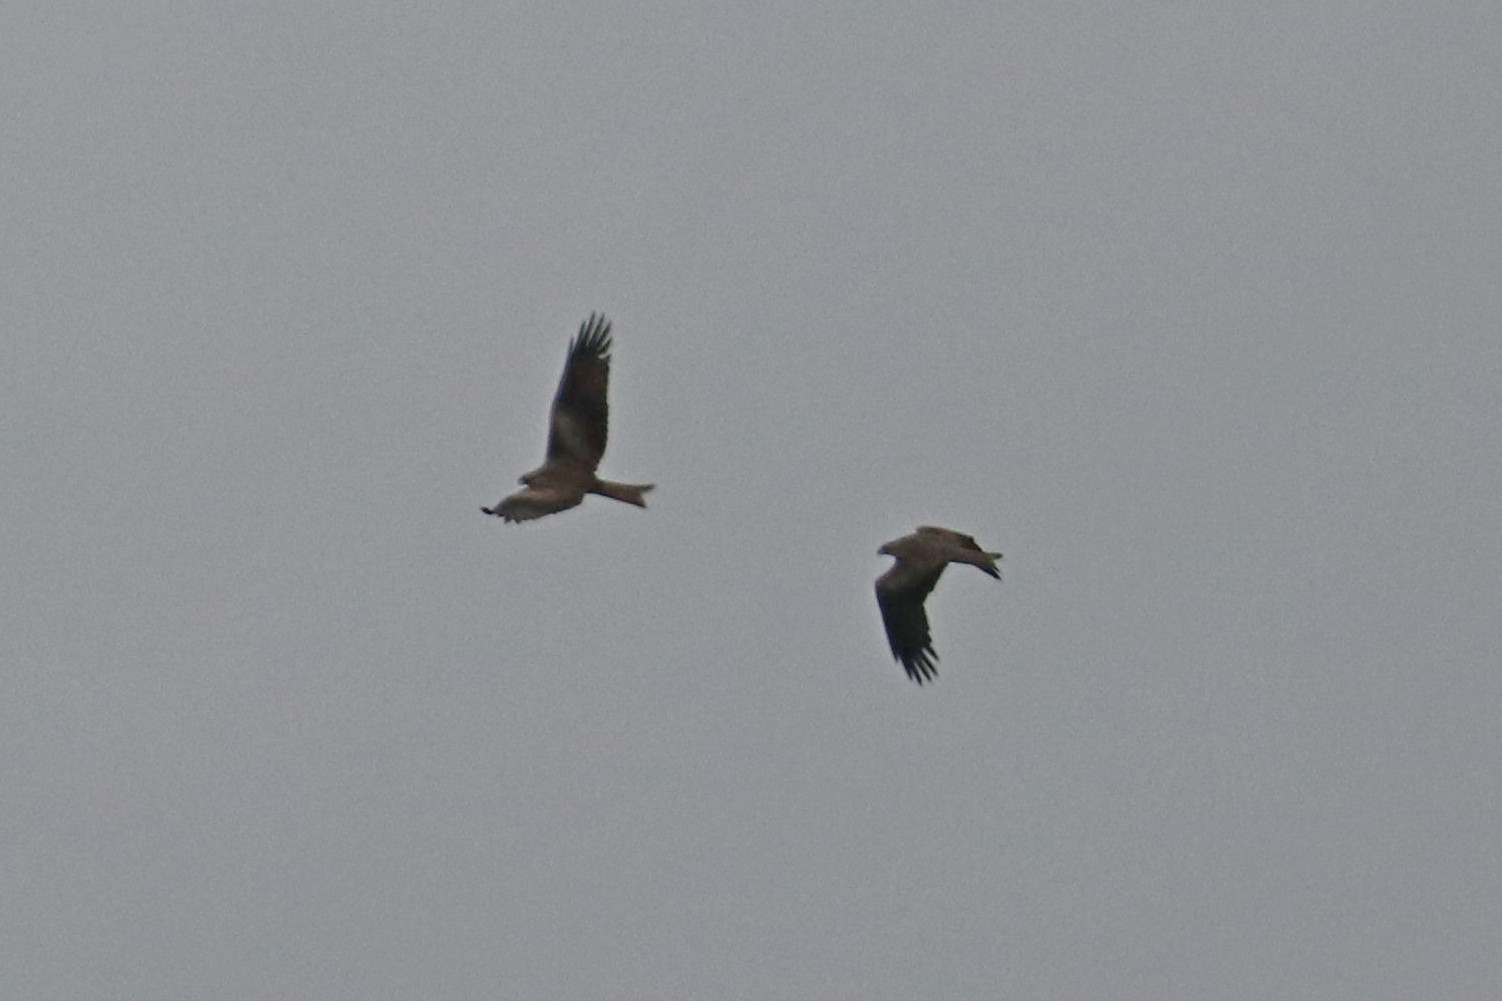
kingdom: Animalia
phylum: Chordata
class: Aves
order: Accipitriformes
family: Accipitridae
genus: Milvus
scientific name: Milvus migrans
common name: Black kite
